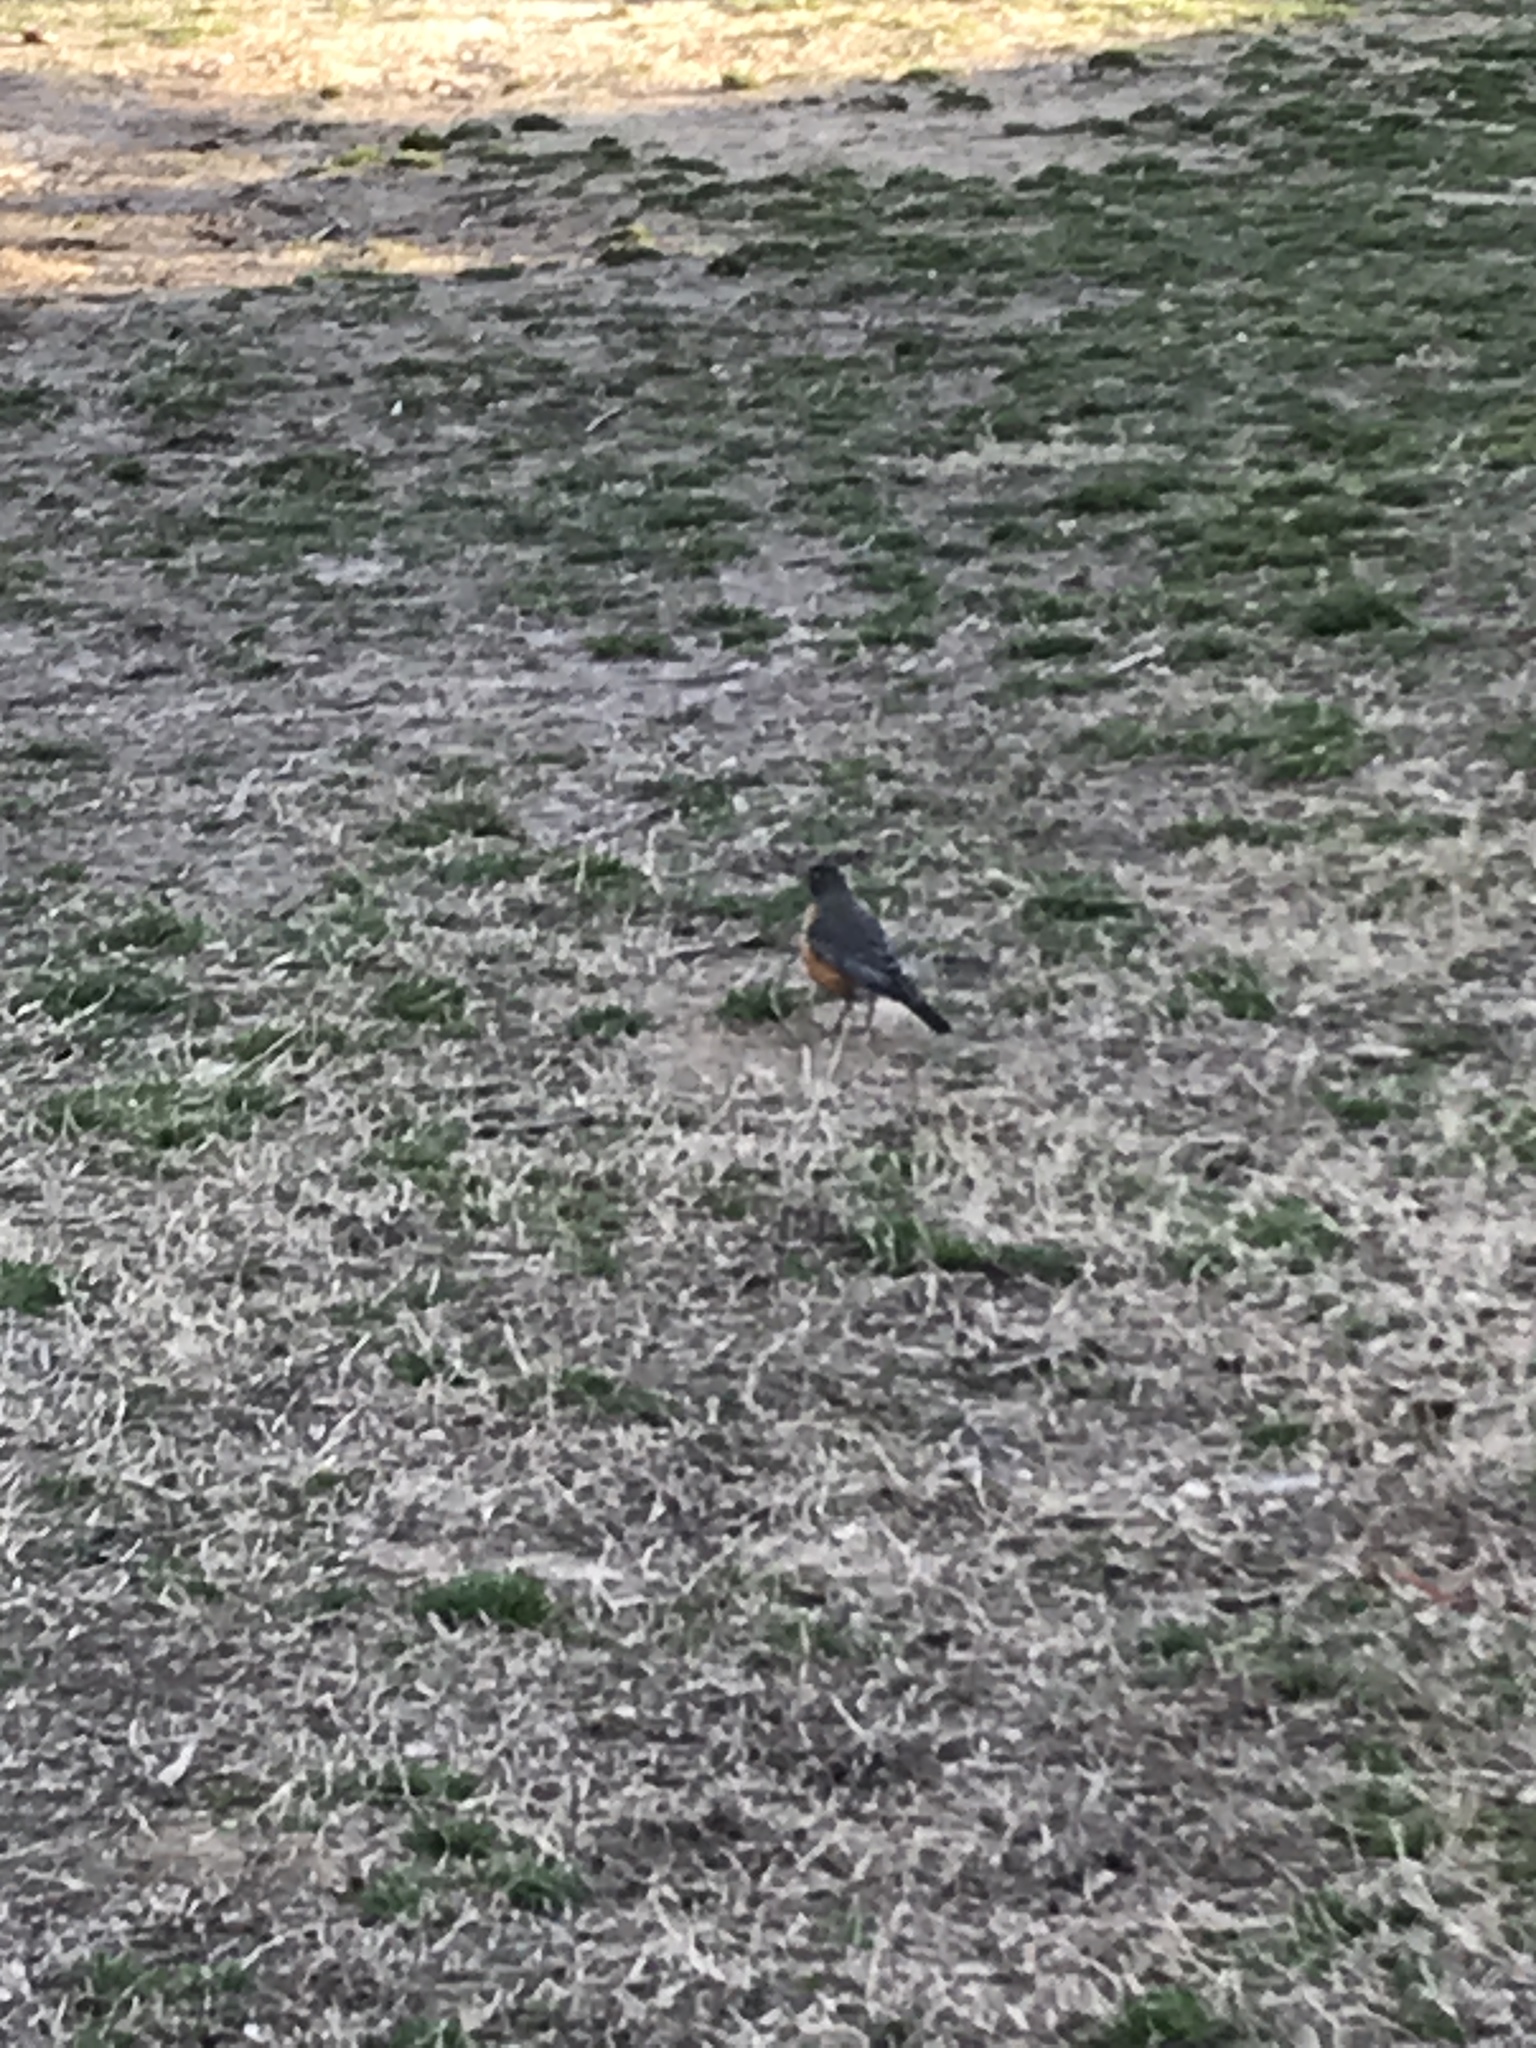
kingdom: Animalia
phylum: Chordata
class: Aves
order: Passeriformes
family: Turdidae
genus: Turdus
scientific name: Turdus migratorius
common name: American robin
